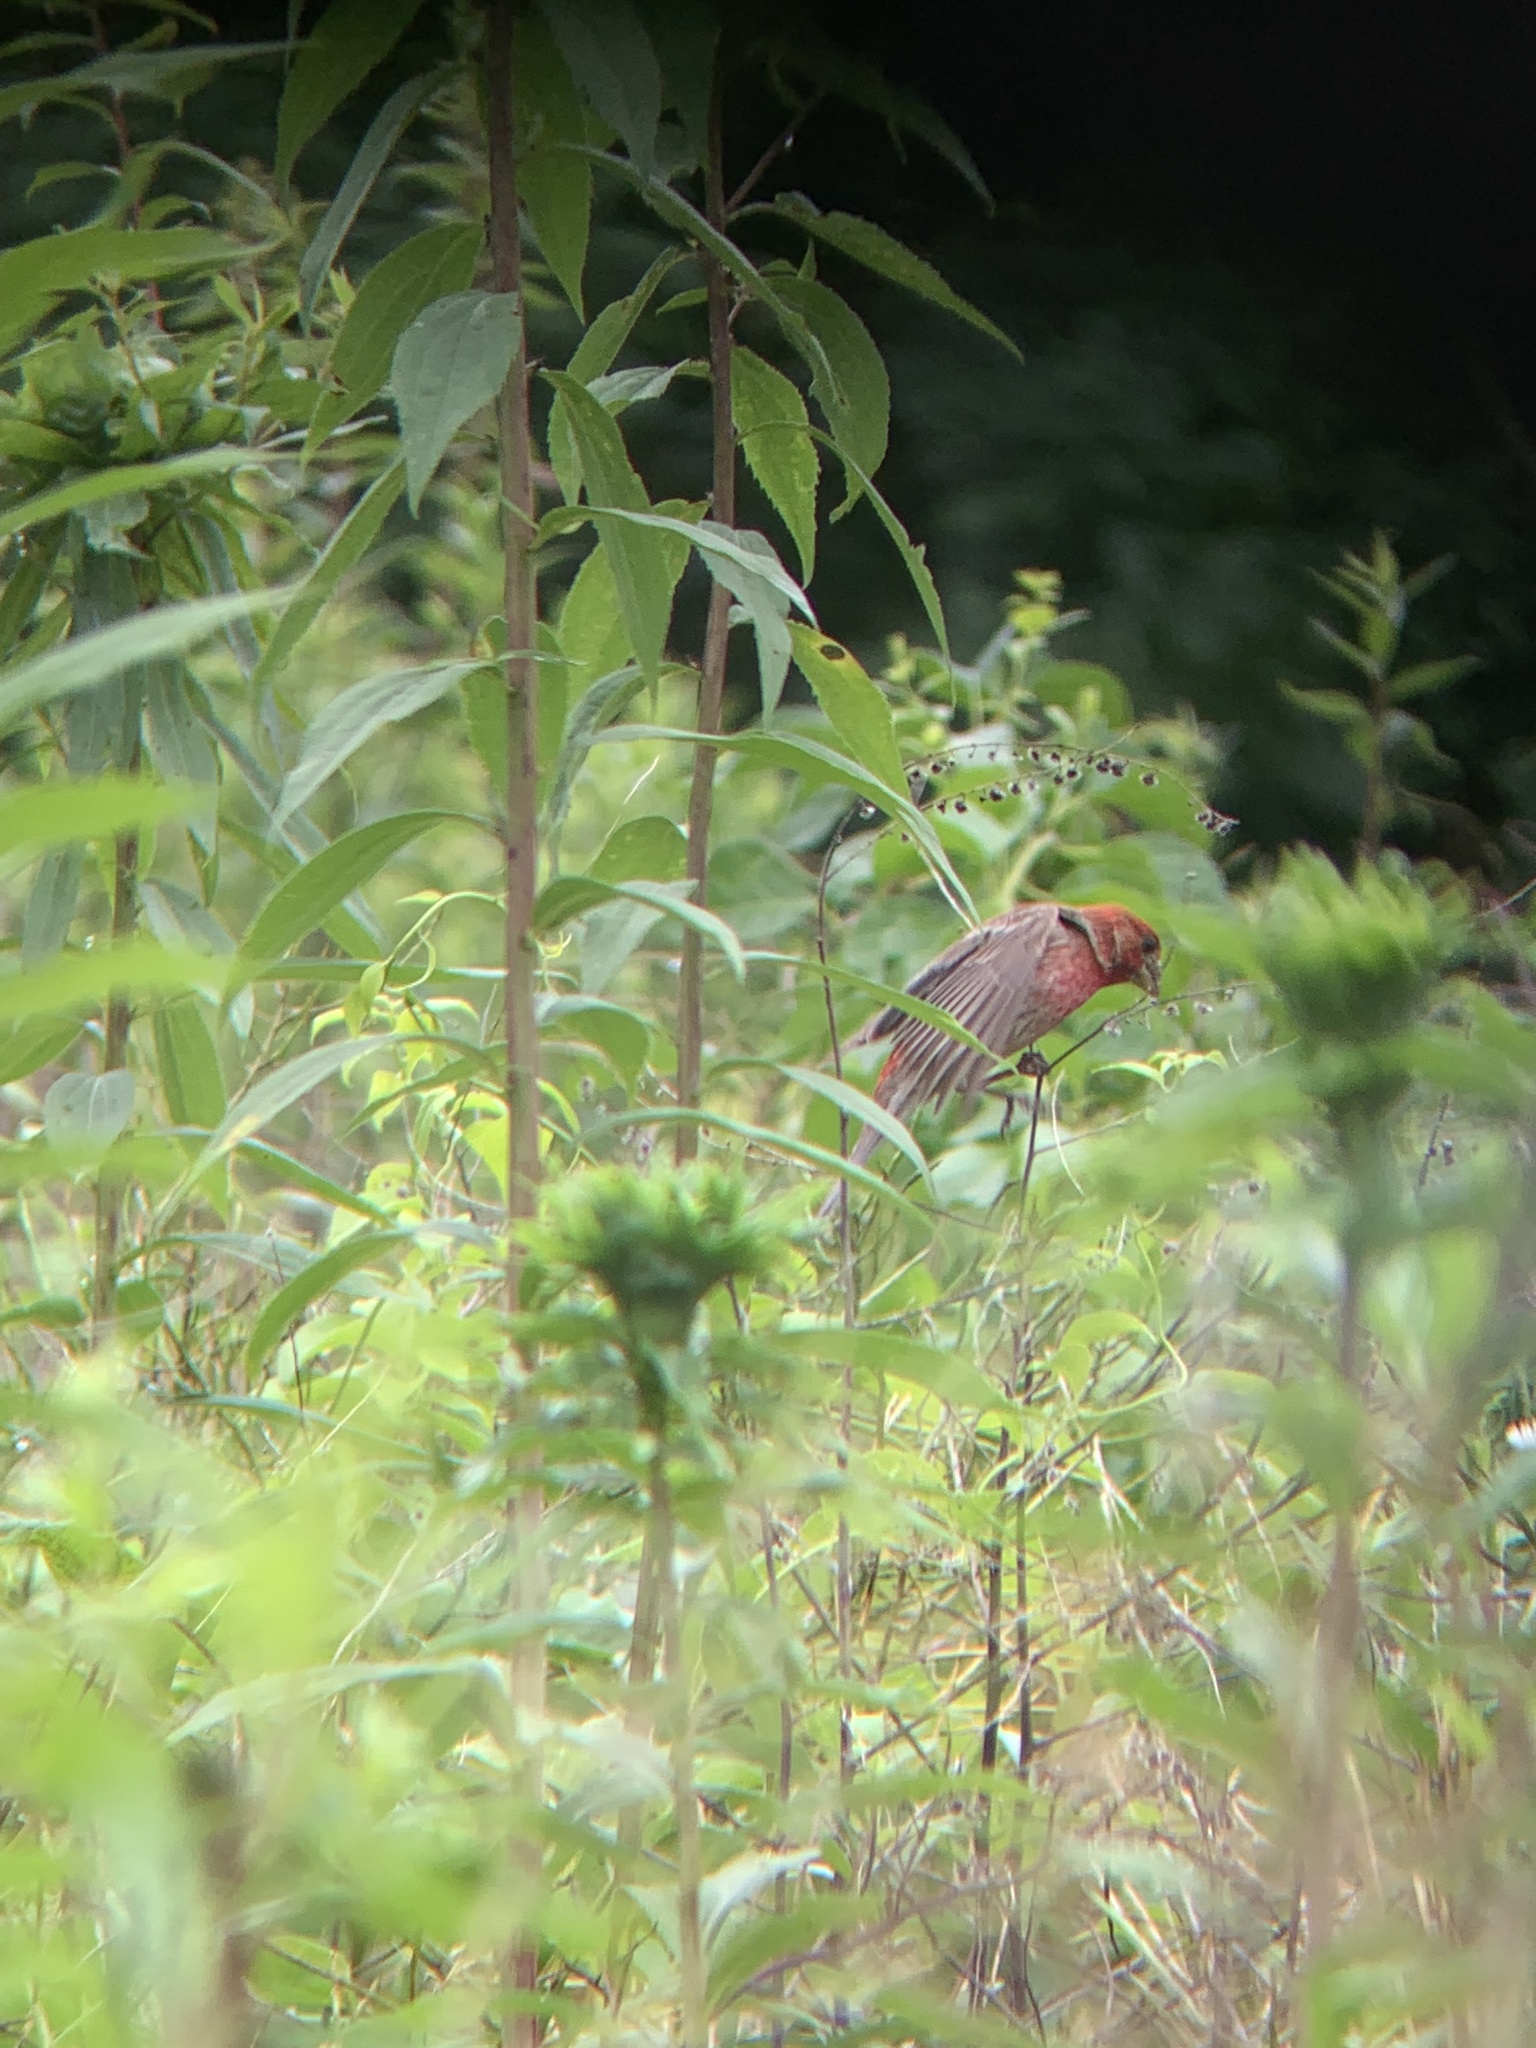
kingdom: Animalia
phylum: Chordata
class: Aves
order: Passeriformes
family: Fringillidae
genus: Haemorhous
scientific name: Haemorhous mexicanus
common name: House finch
